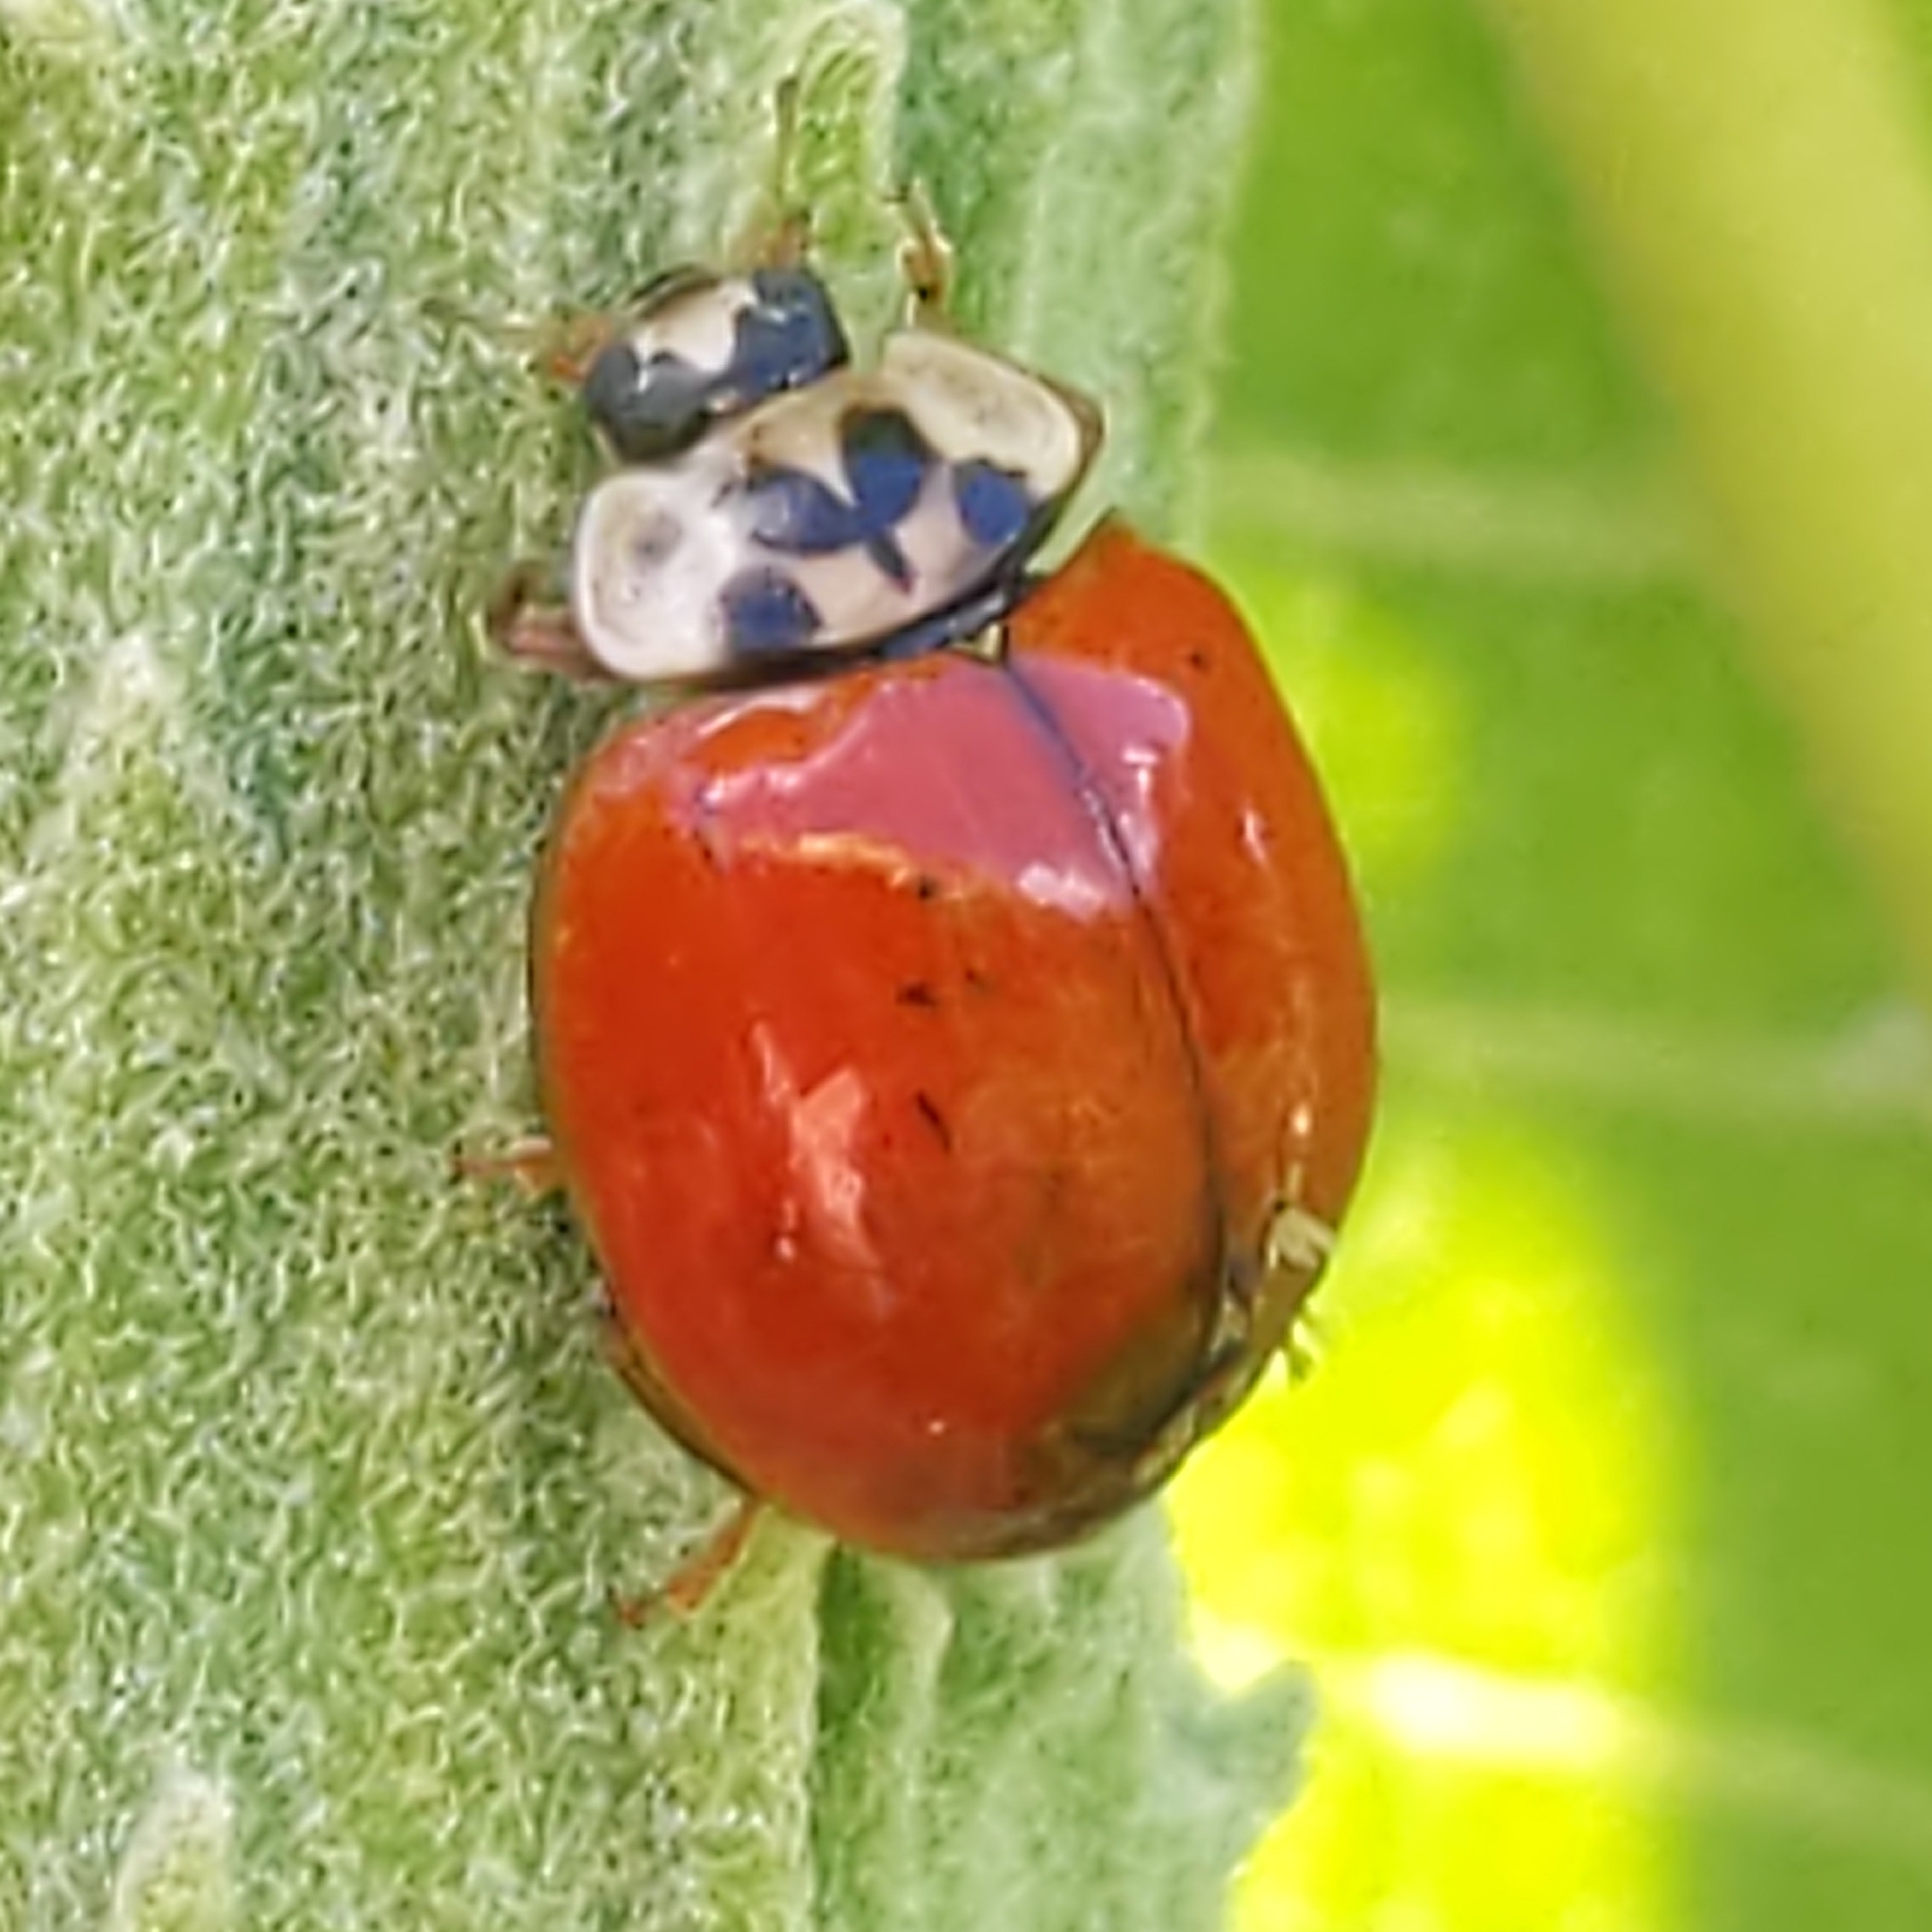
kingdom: Animalia
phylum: Arthropoda
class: Insecta
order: Coleoptera
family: Coccinellidae
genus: Harmonia
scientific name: Harmonia axyridis
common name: Harlequin ladybird
